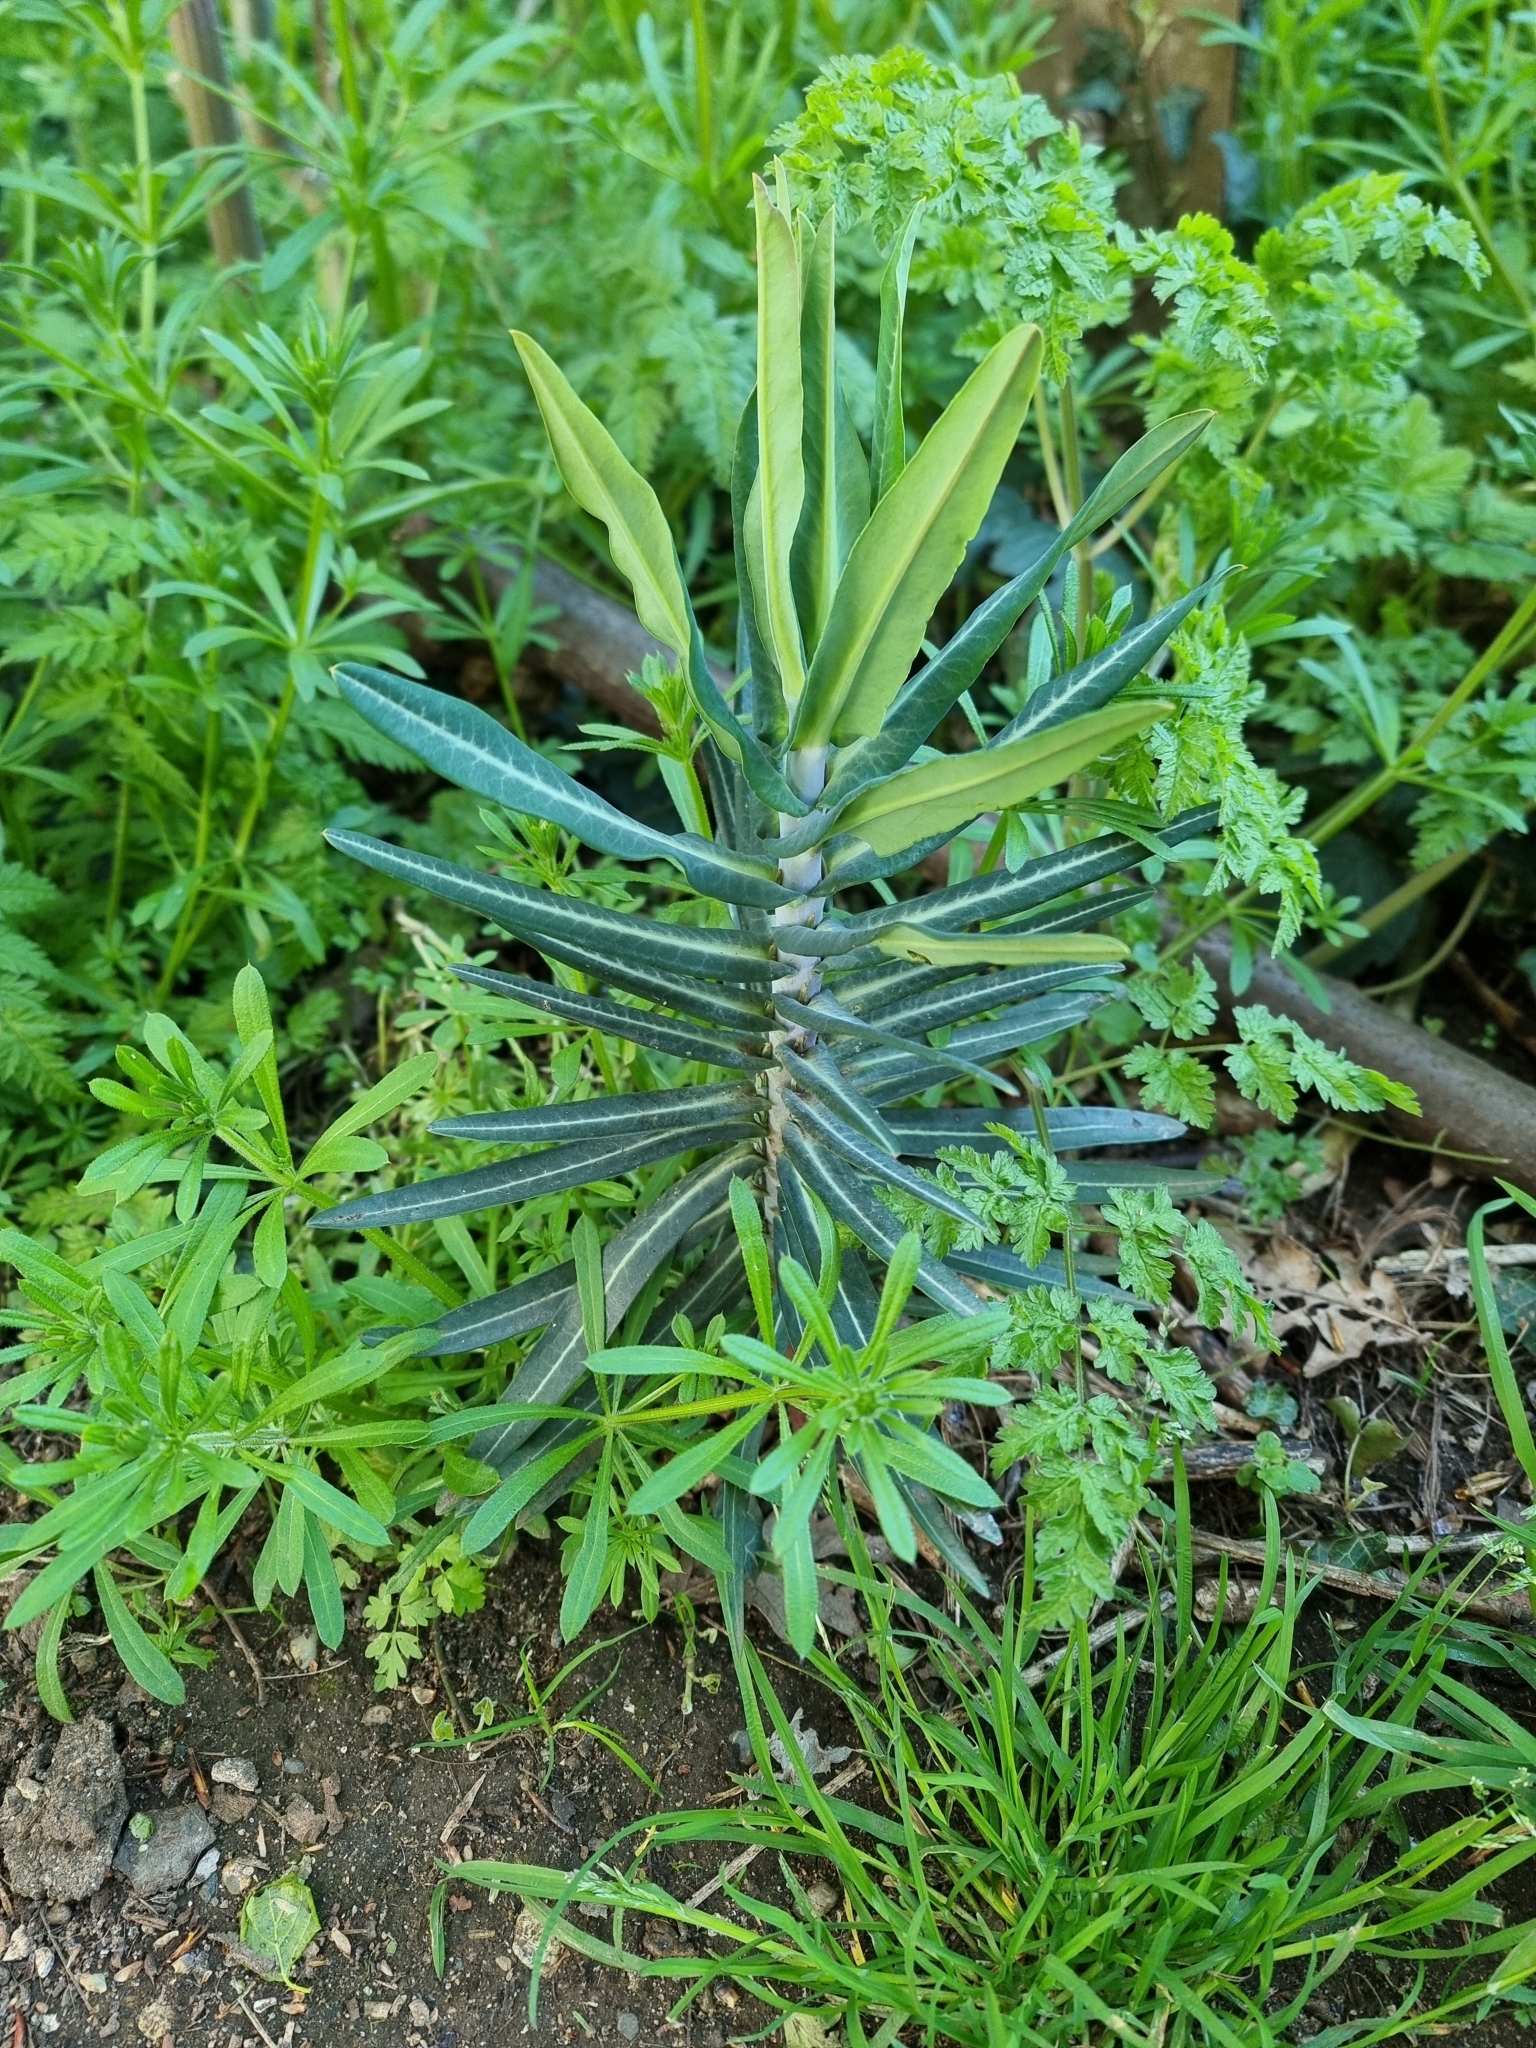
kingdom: Plantae
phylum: Tracheophyta
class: Magnoliopsida
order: Malpighiales
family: Euphorbiaceae
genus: Euphorbia
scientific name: Euphorbia lathyris
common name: Caper spurge
